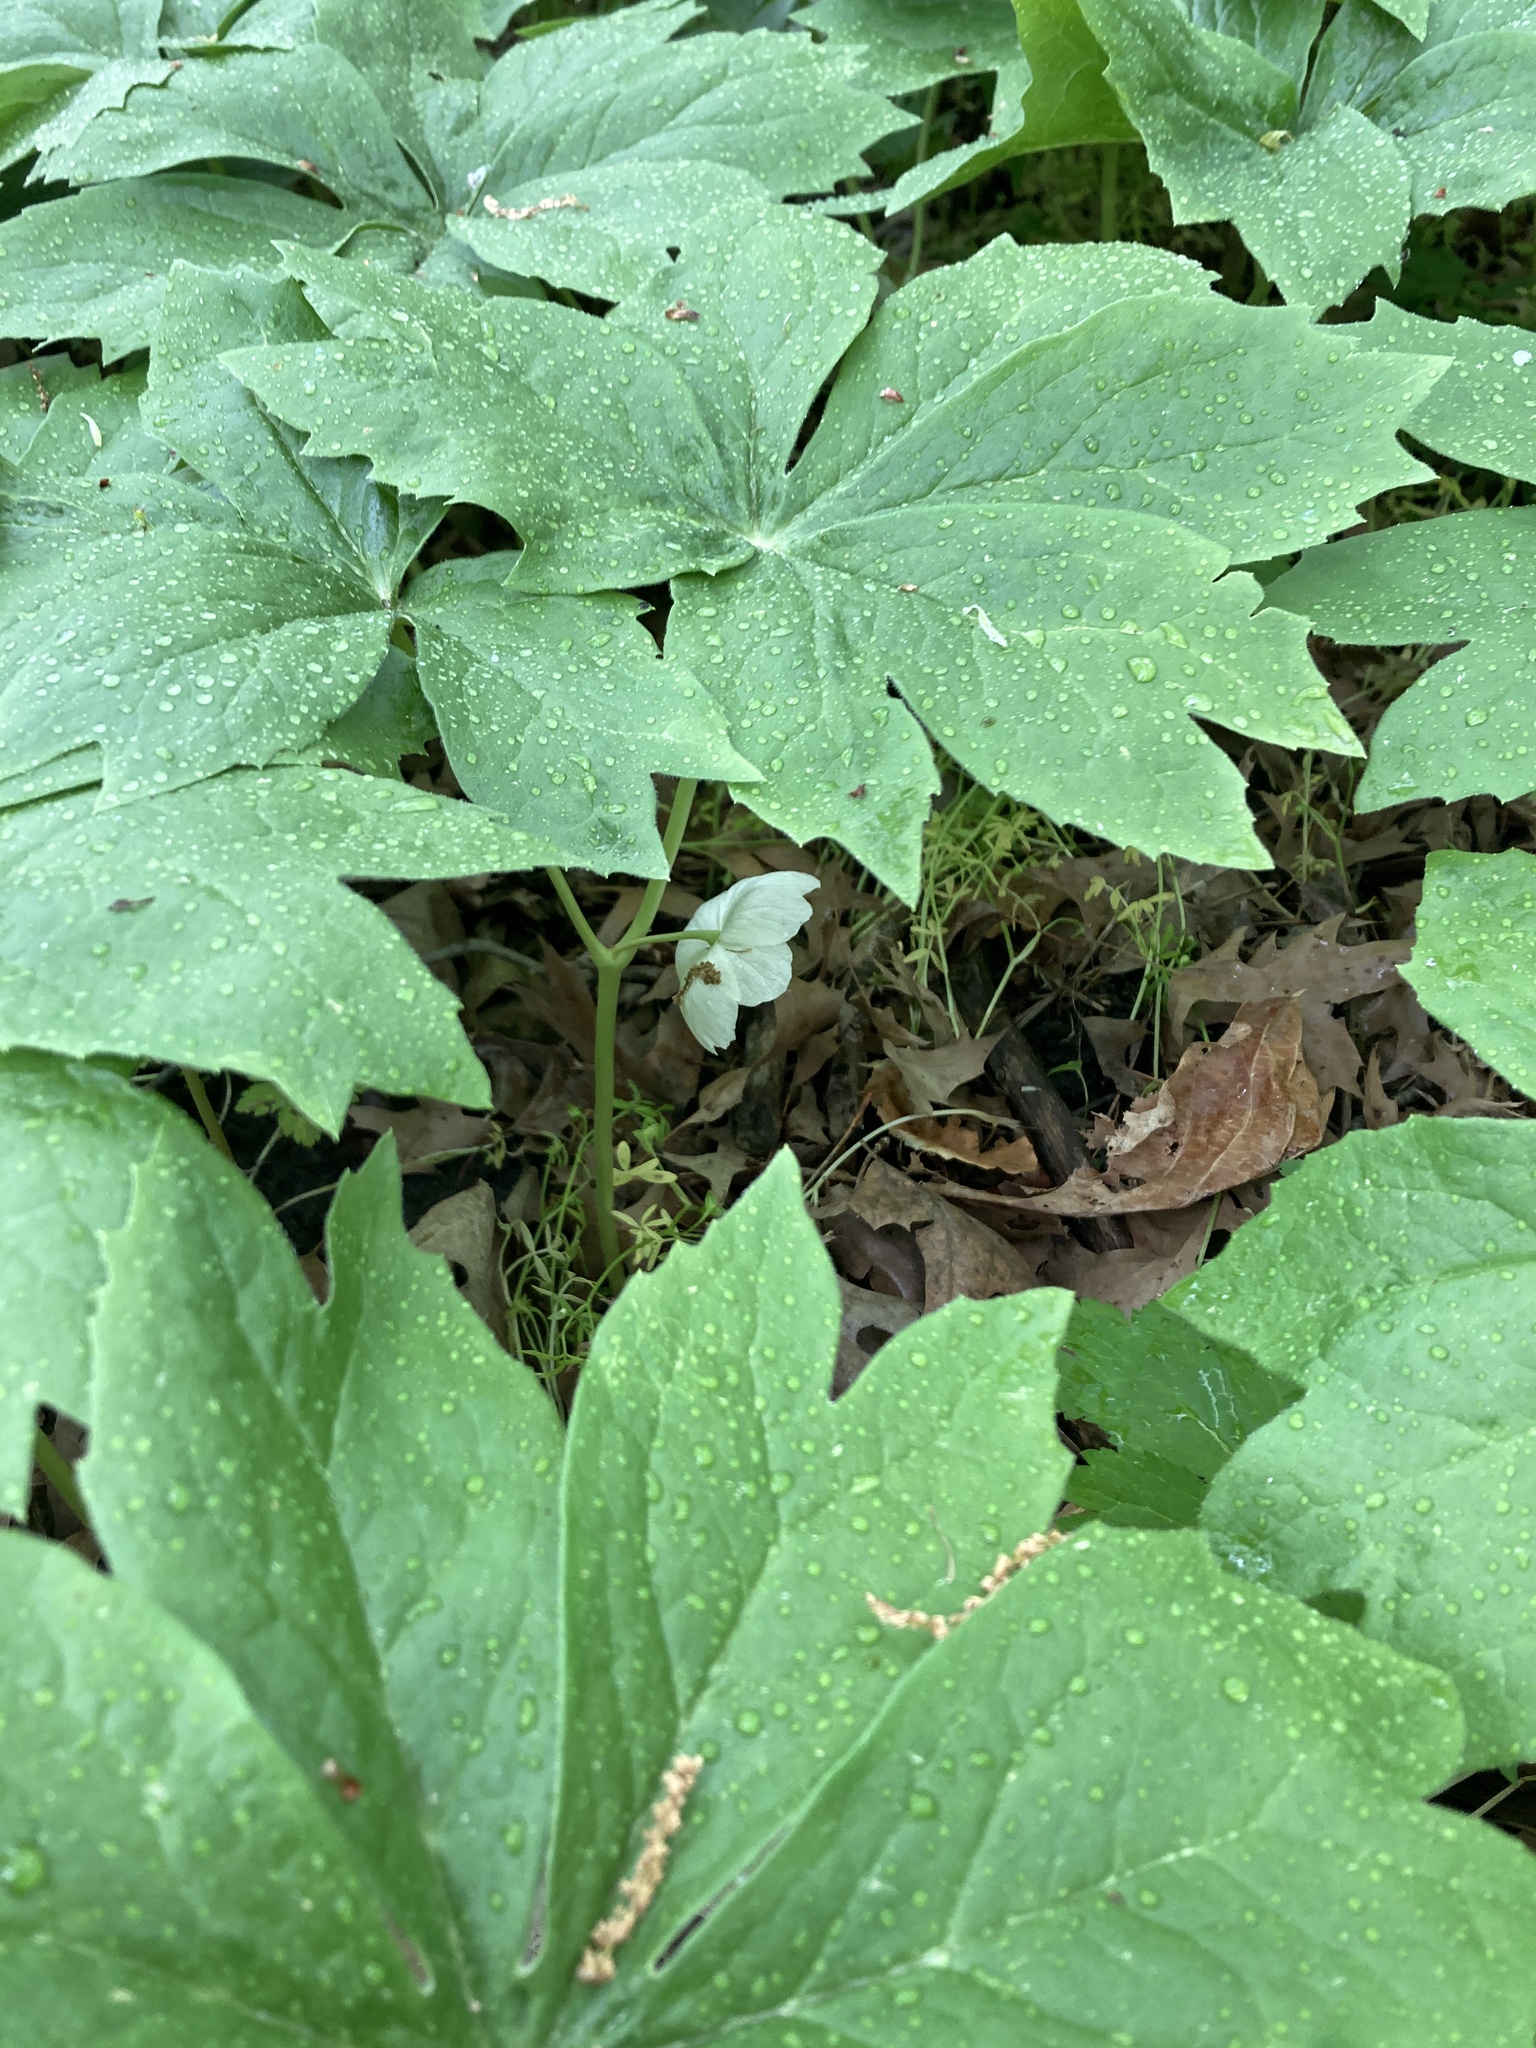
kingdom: Plantae
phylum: Tracheophyta
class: Magnoliopsida
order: Ranunculales
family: Berberidaceae
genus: Podophyllum
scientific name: Podophyllum peltatum
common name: Wild mandrake
